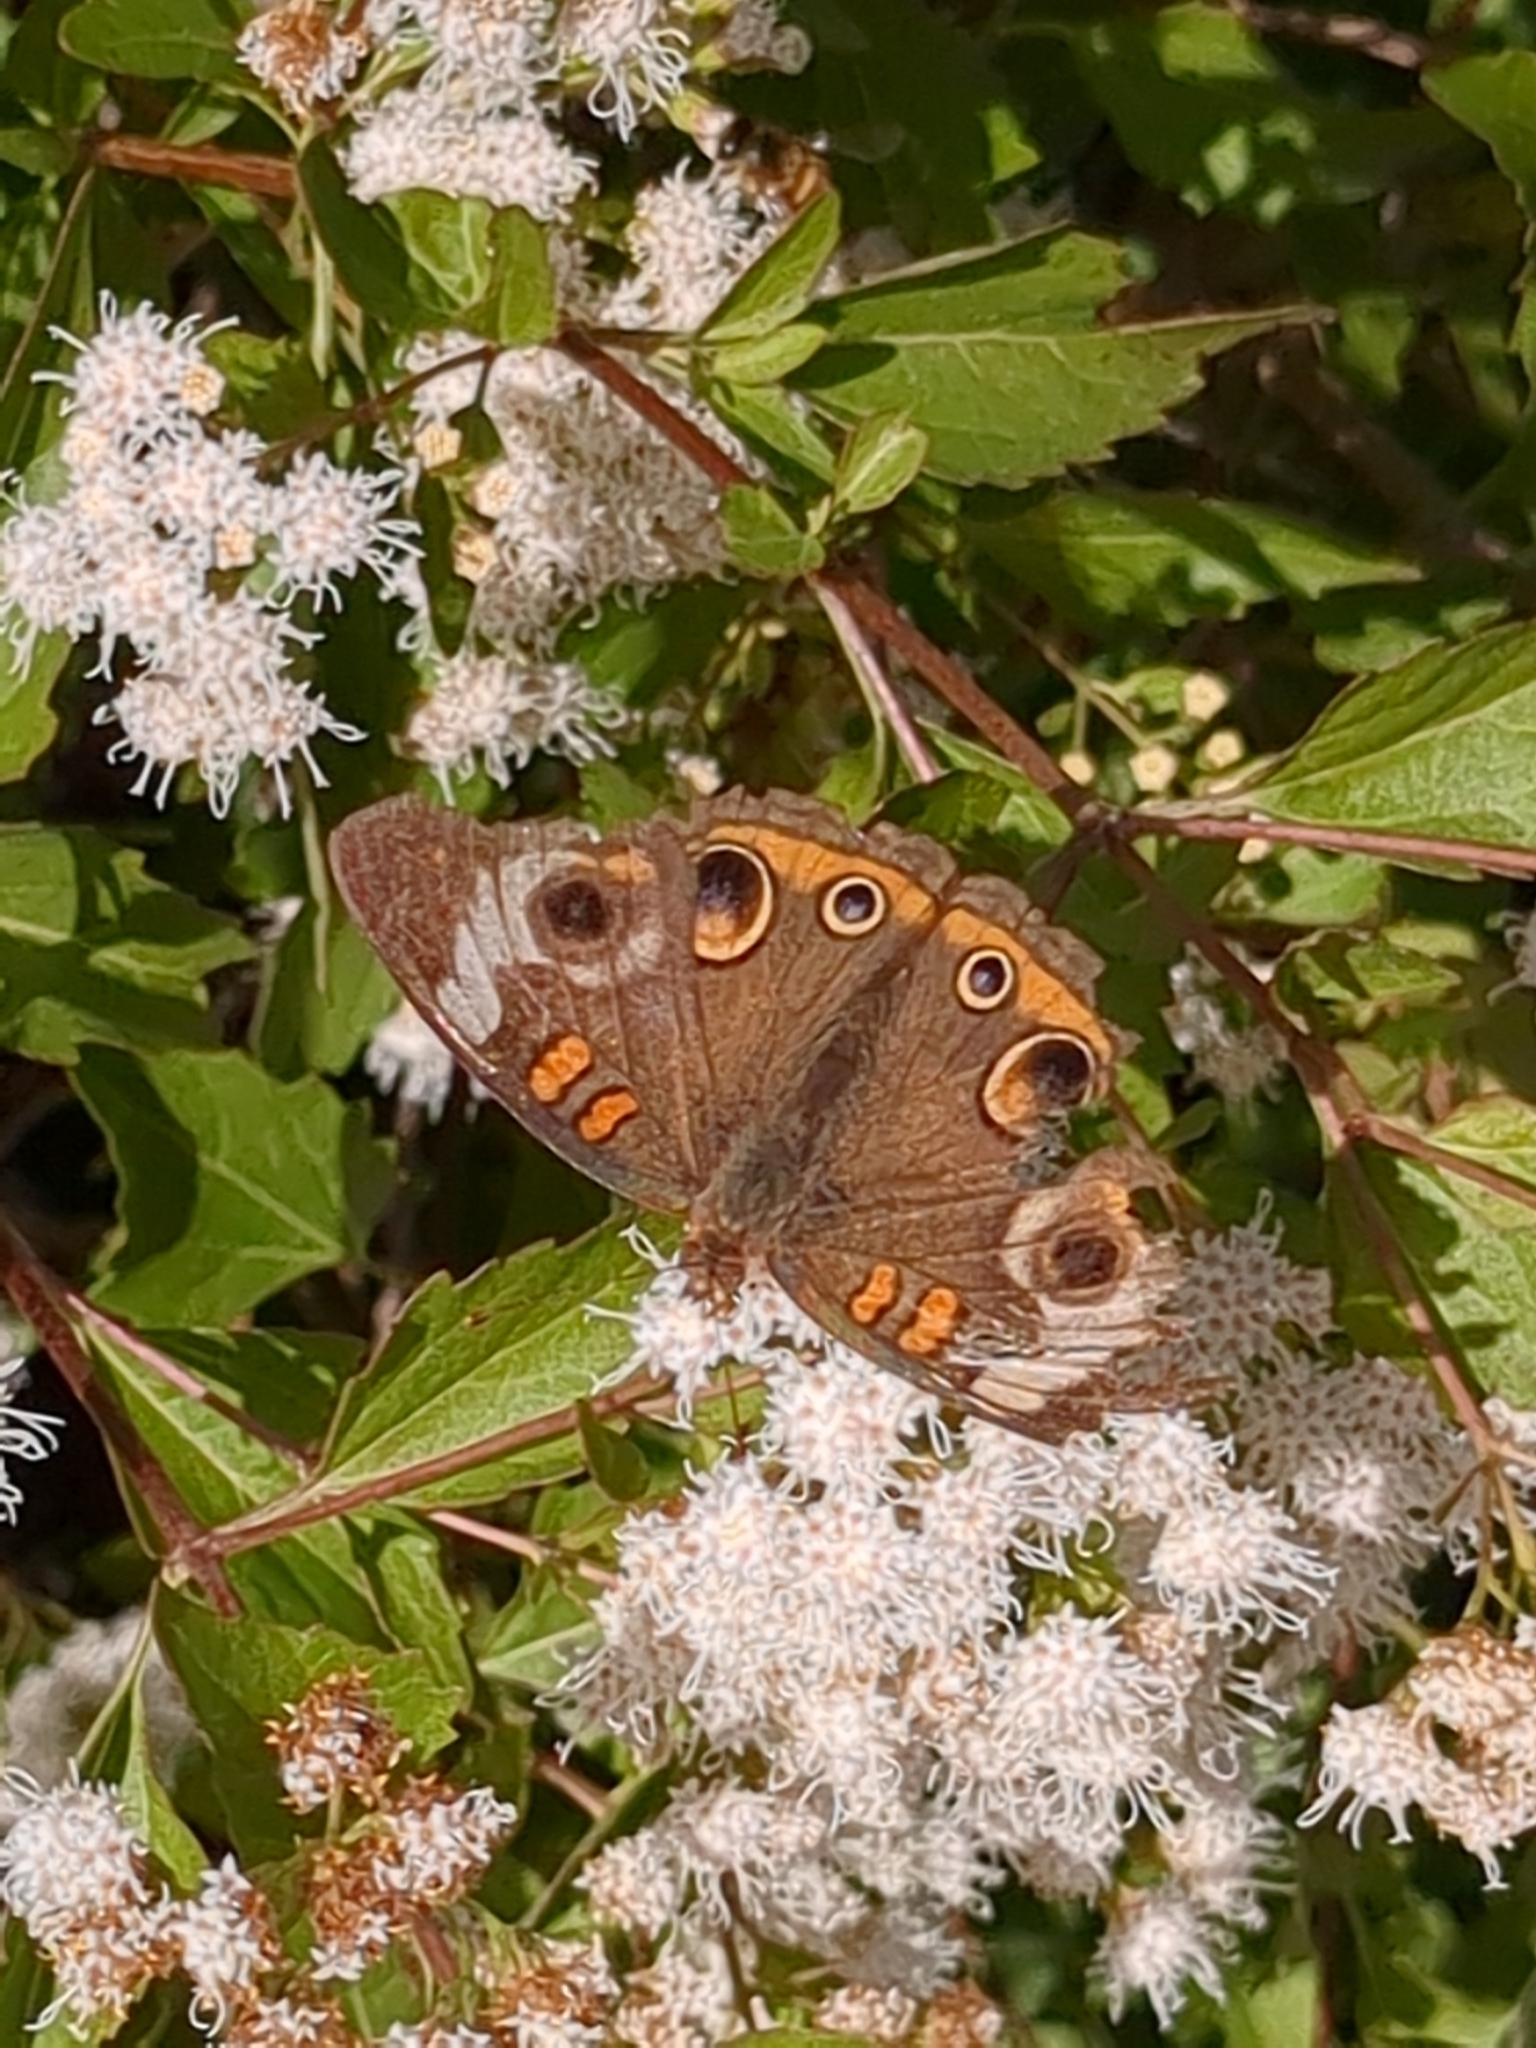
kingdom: Animalia
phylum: Arthropoda
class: Insecta
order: Lepidoptera
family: Nymphalidae
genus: Junonia
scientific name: Junonia coenia
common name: Common buckeye
